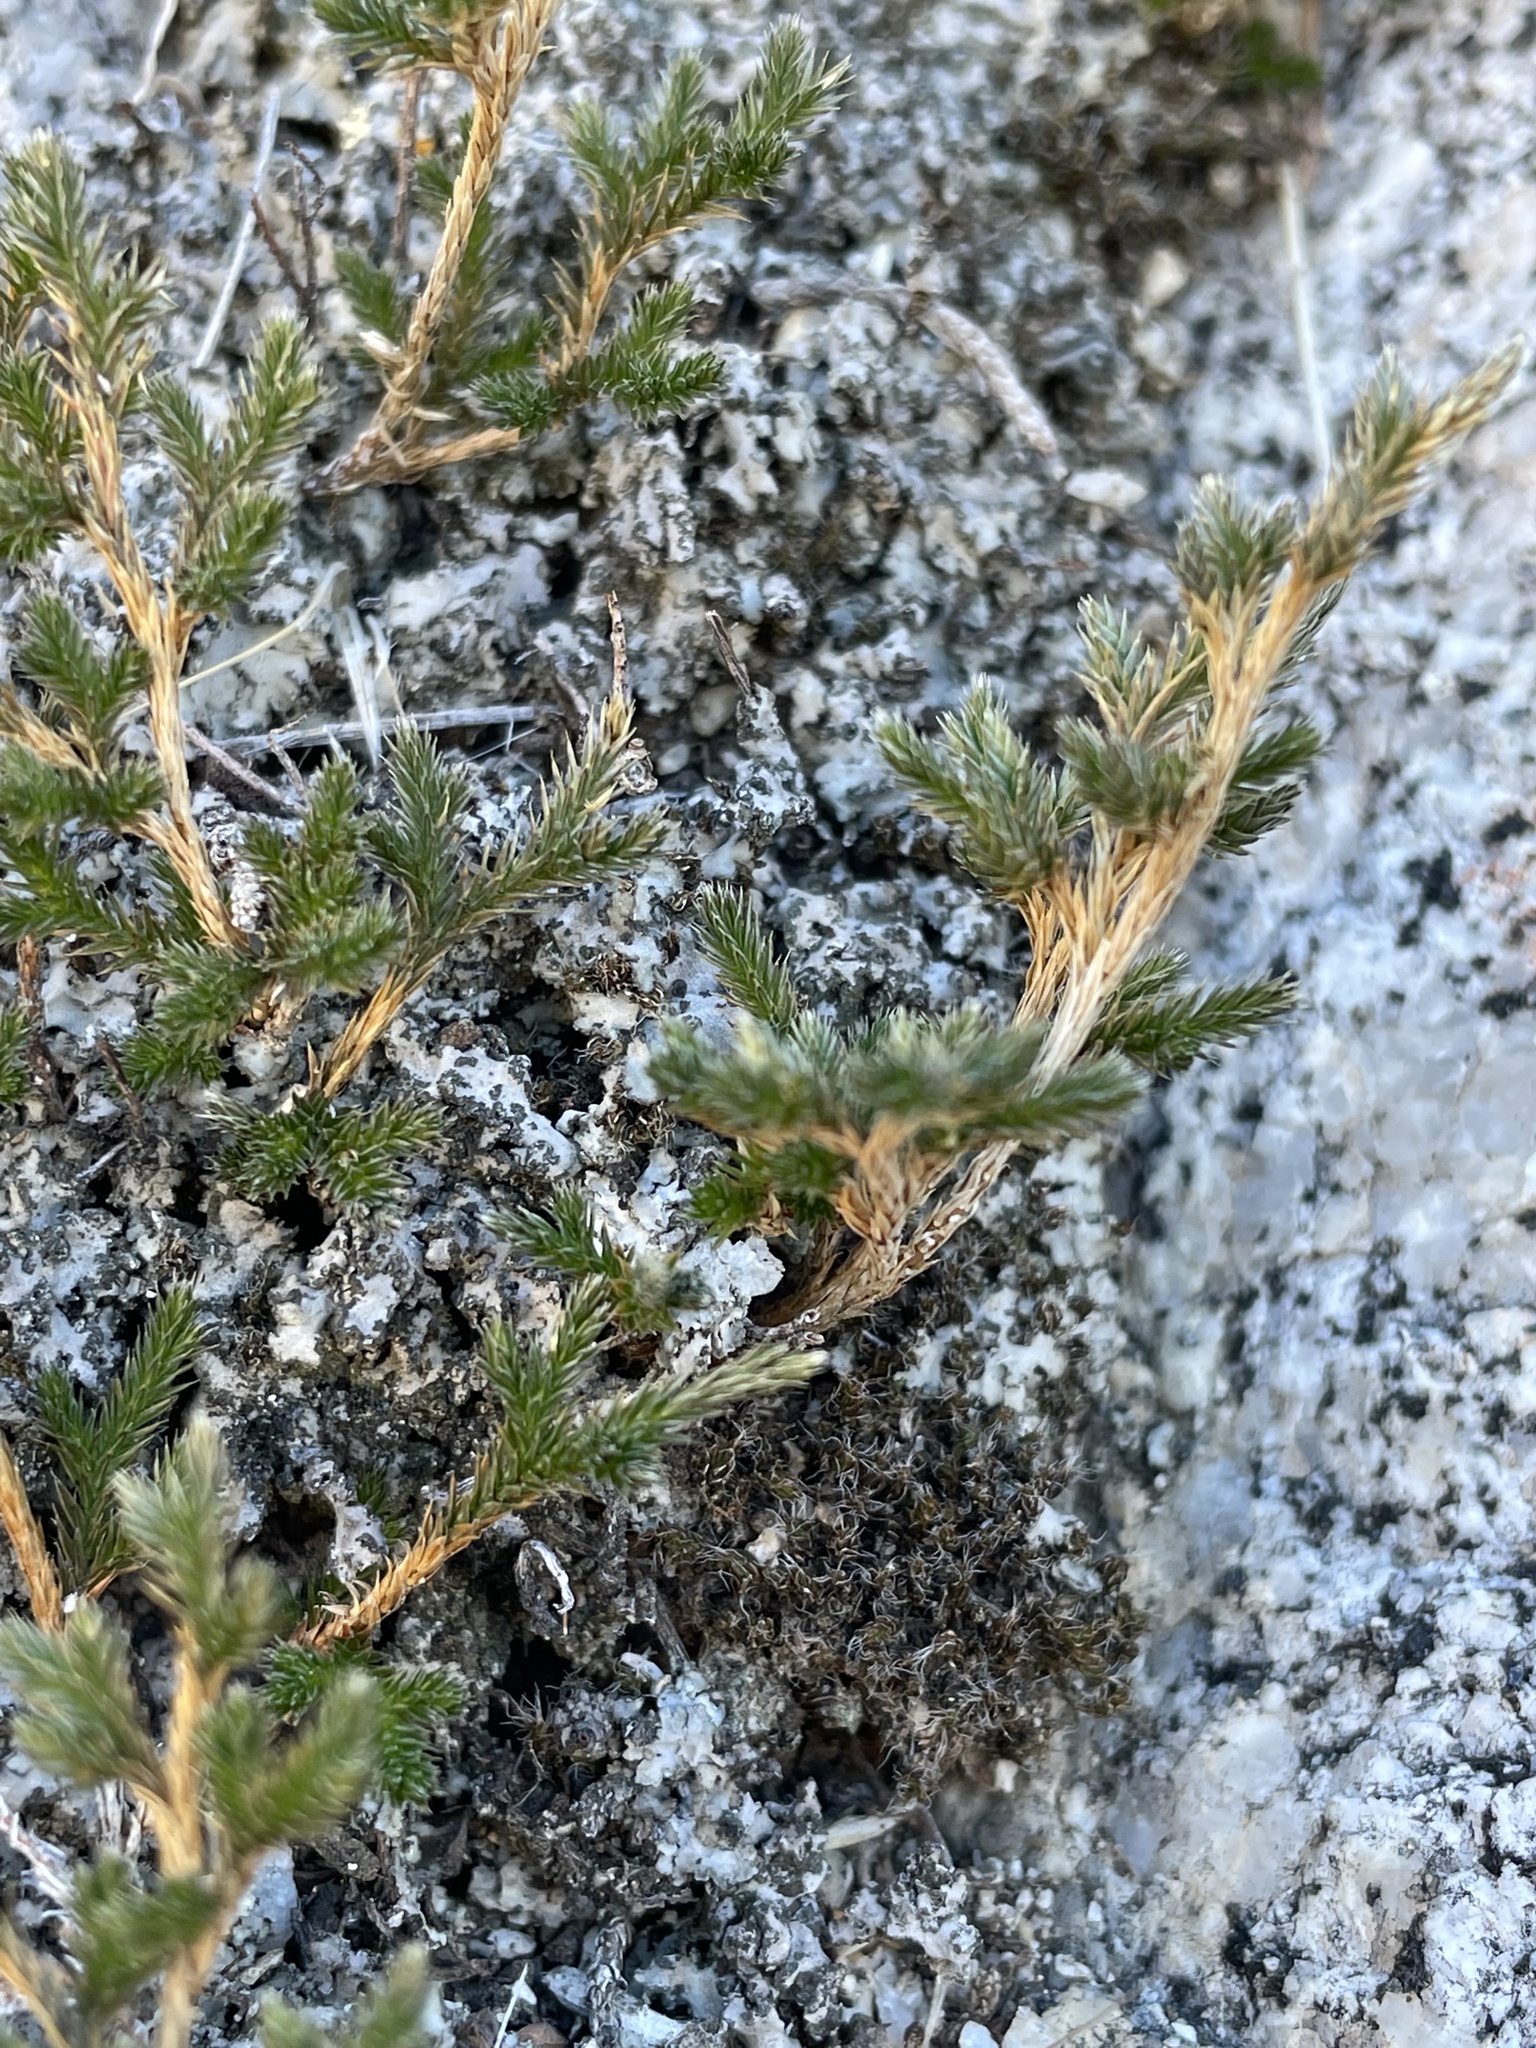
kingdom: Plantae
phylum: Tracheophyta
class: Lycopodiopsida
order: Selaginellales
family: Selaginellaceae
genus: Selaginella
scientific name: Selaginella bigelovii
